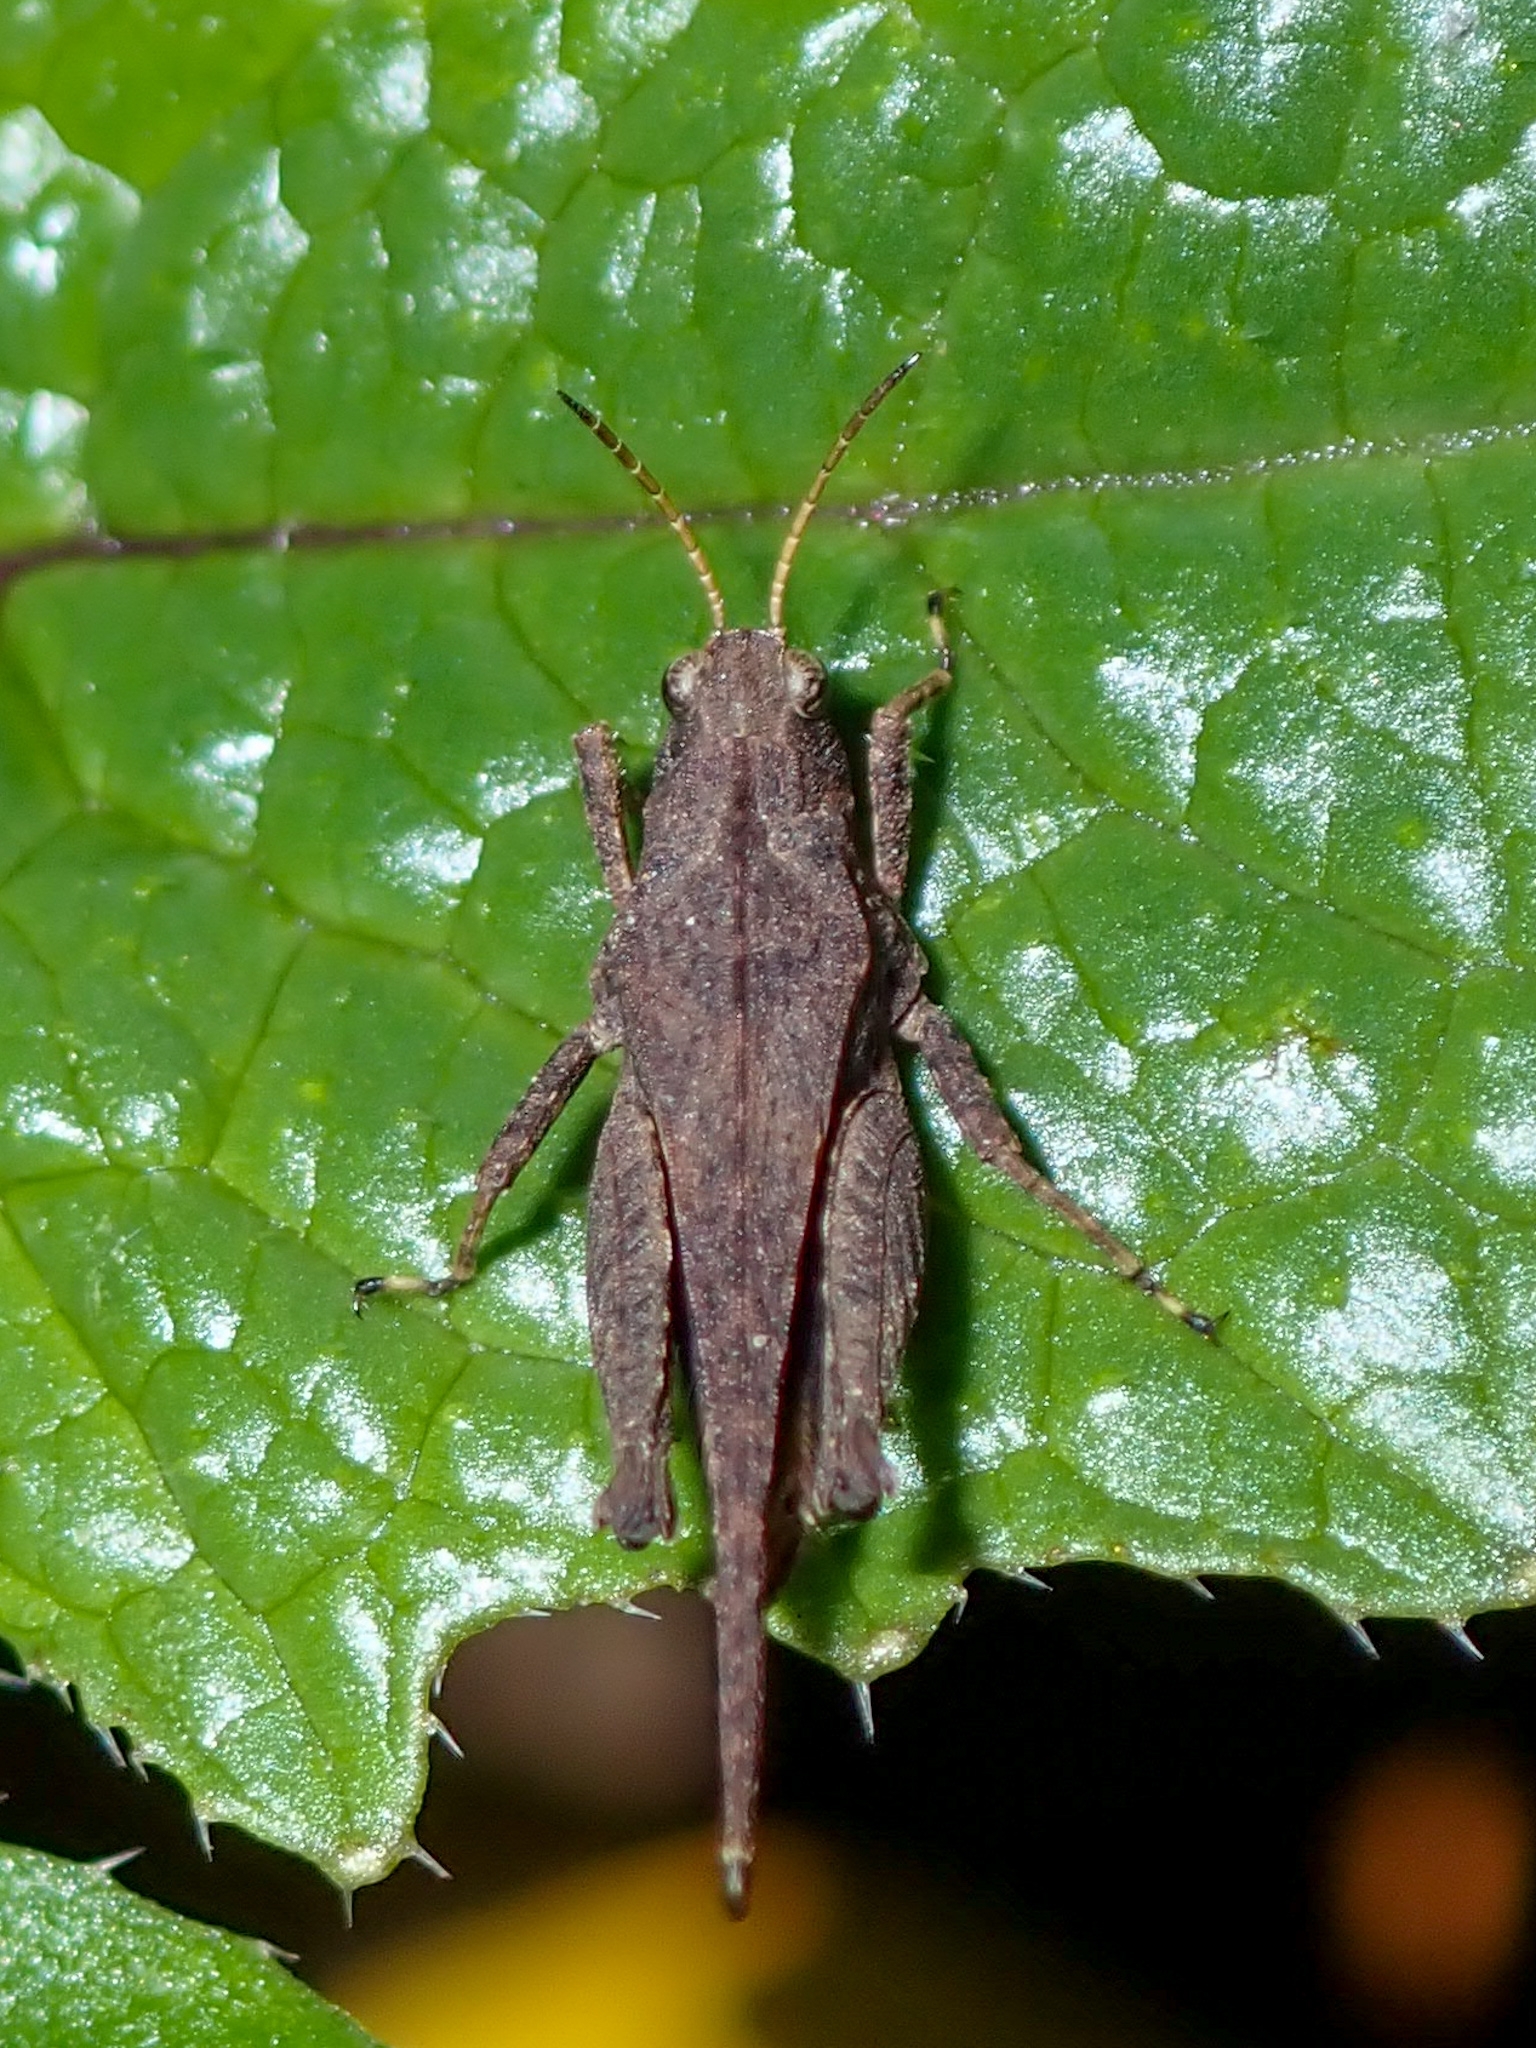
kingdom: Animalia
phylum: Arthropoda
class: Insecta
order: Orthoptera
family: Tetrigidae
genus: Tetrix
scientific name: Tetrix subulata
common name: Slender ground-hopper
